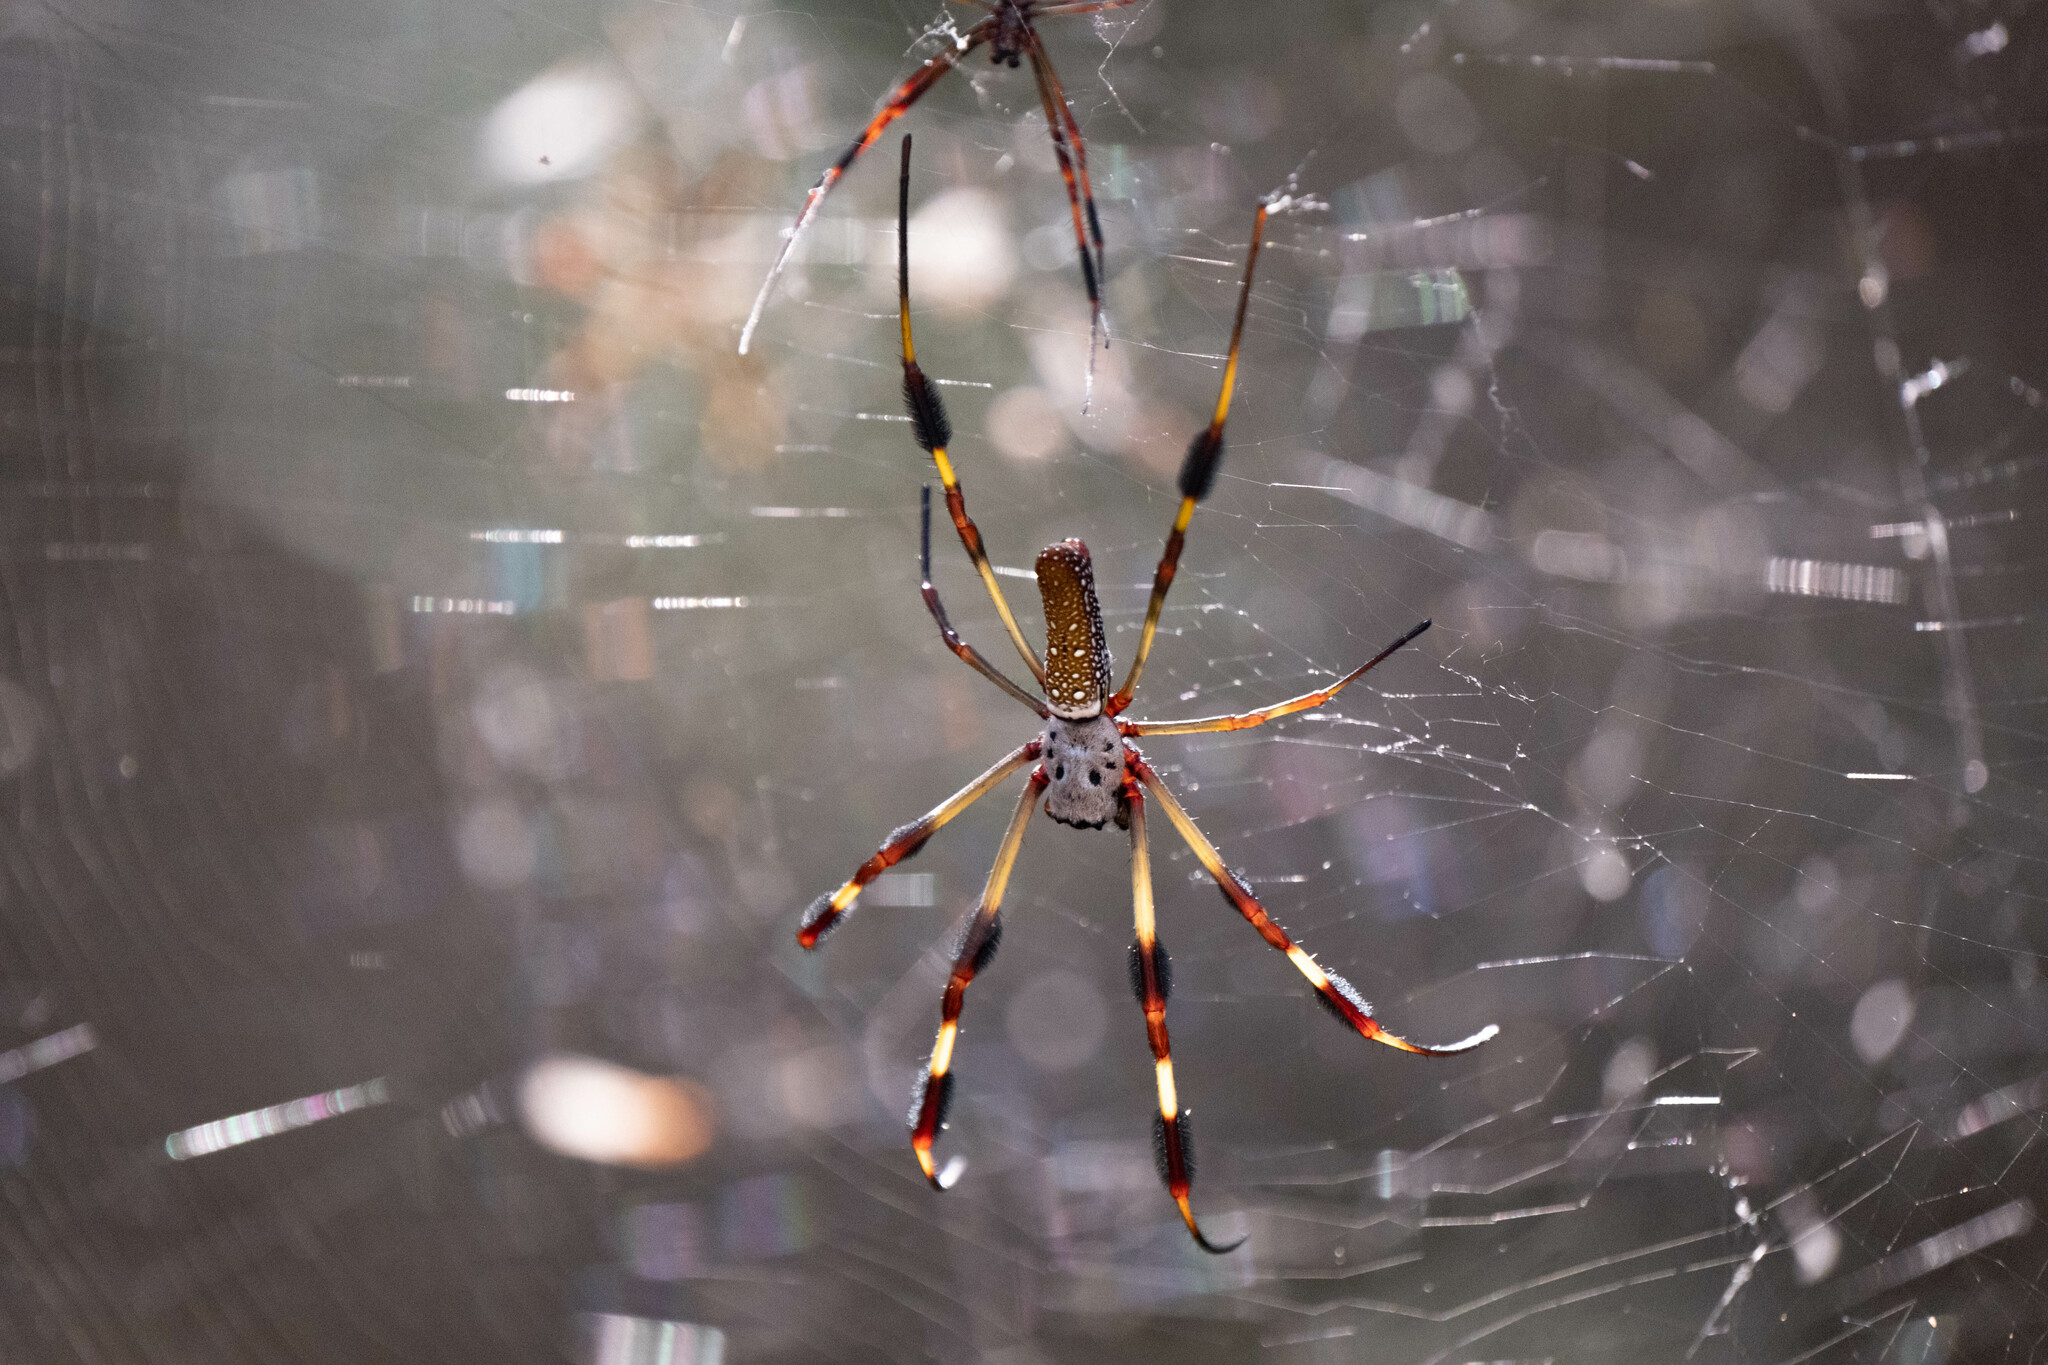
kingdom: Animalia
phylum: Arthropoda
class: Arachnida
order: Araneae
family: Araneidae
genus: Trichonephila
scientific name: Trichonephila clavipes
